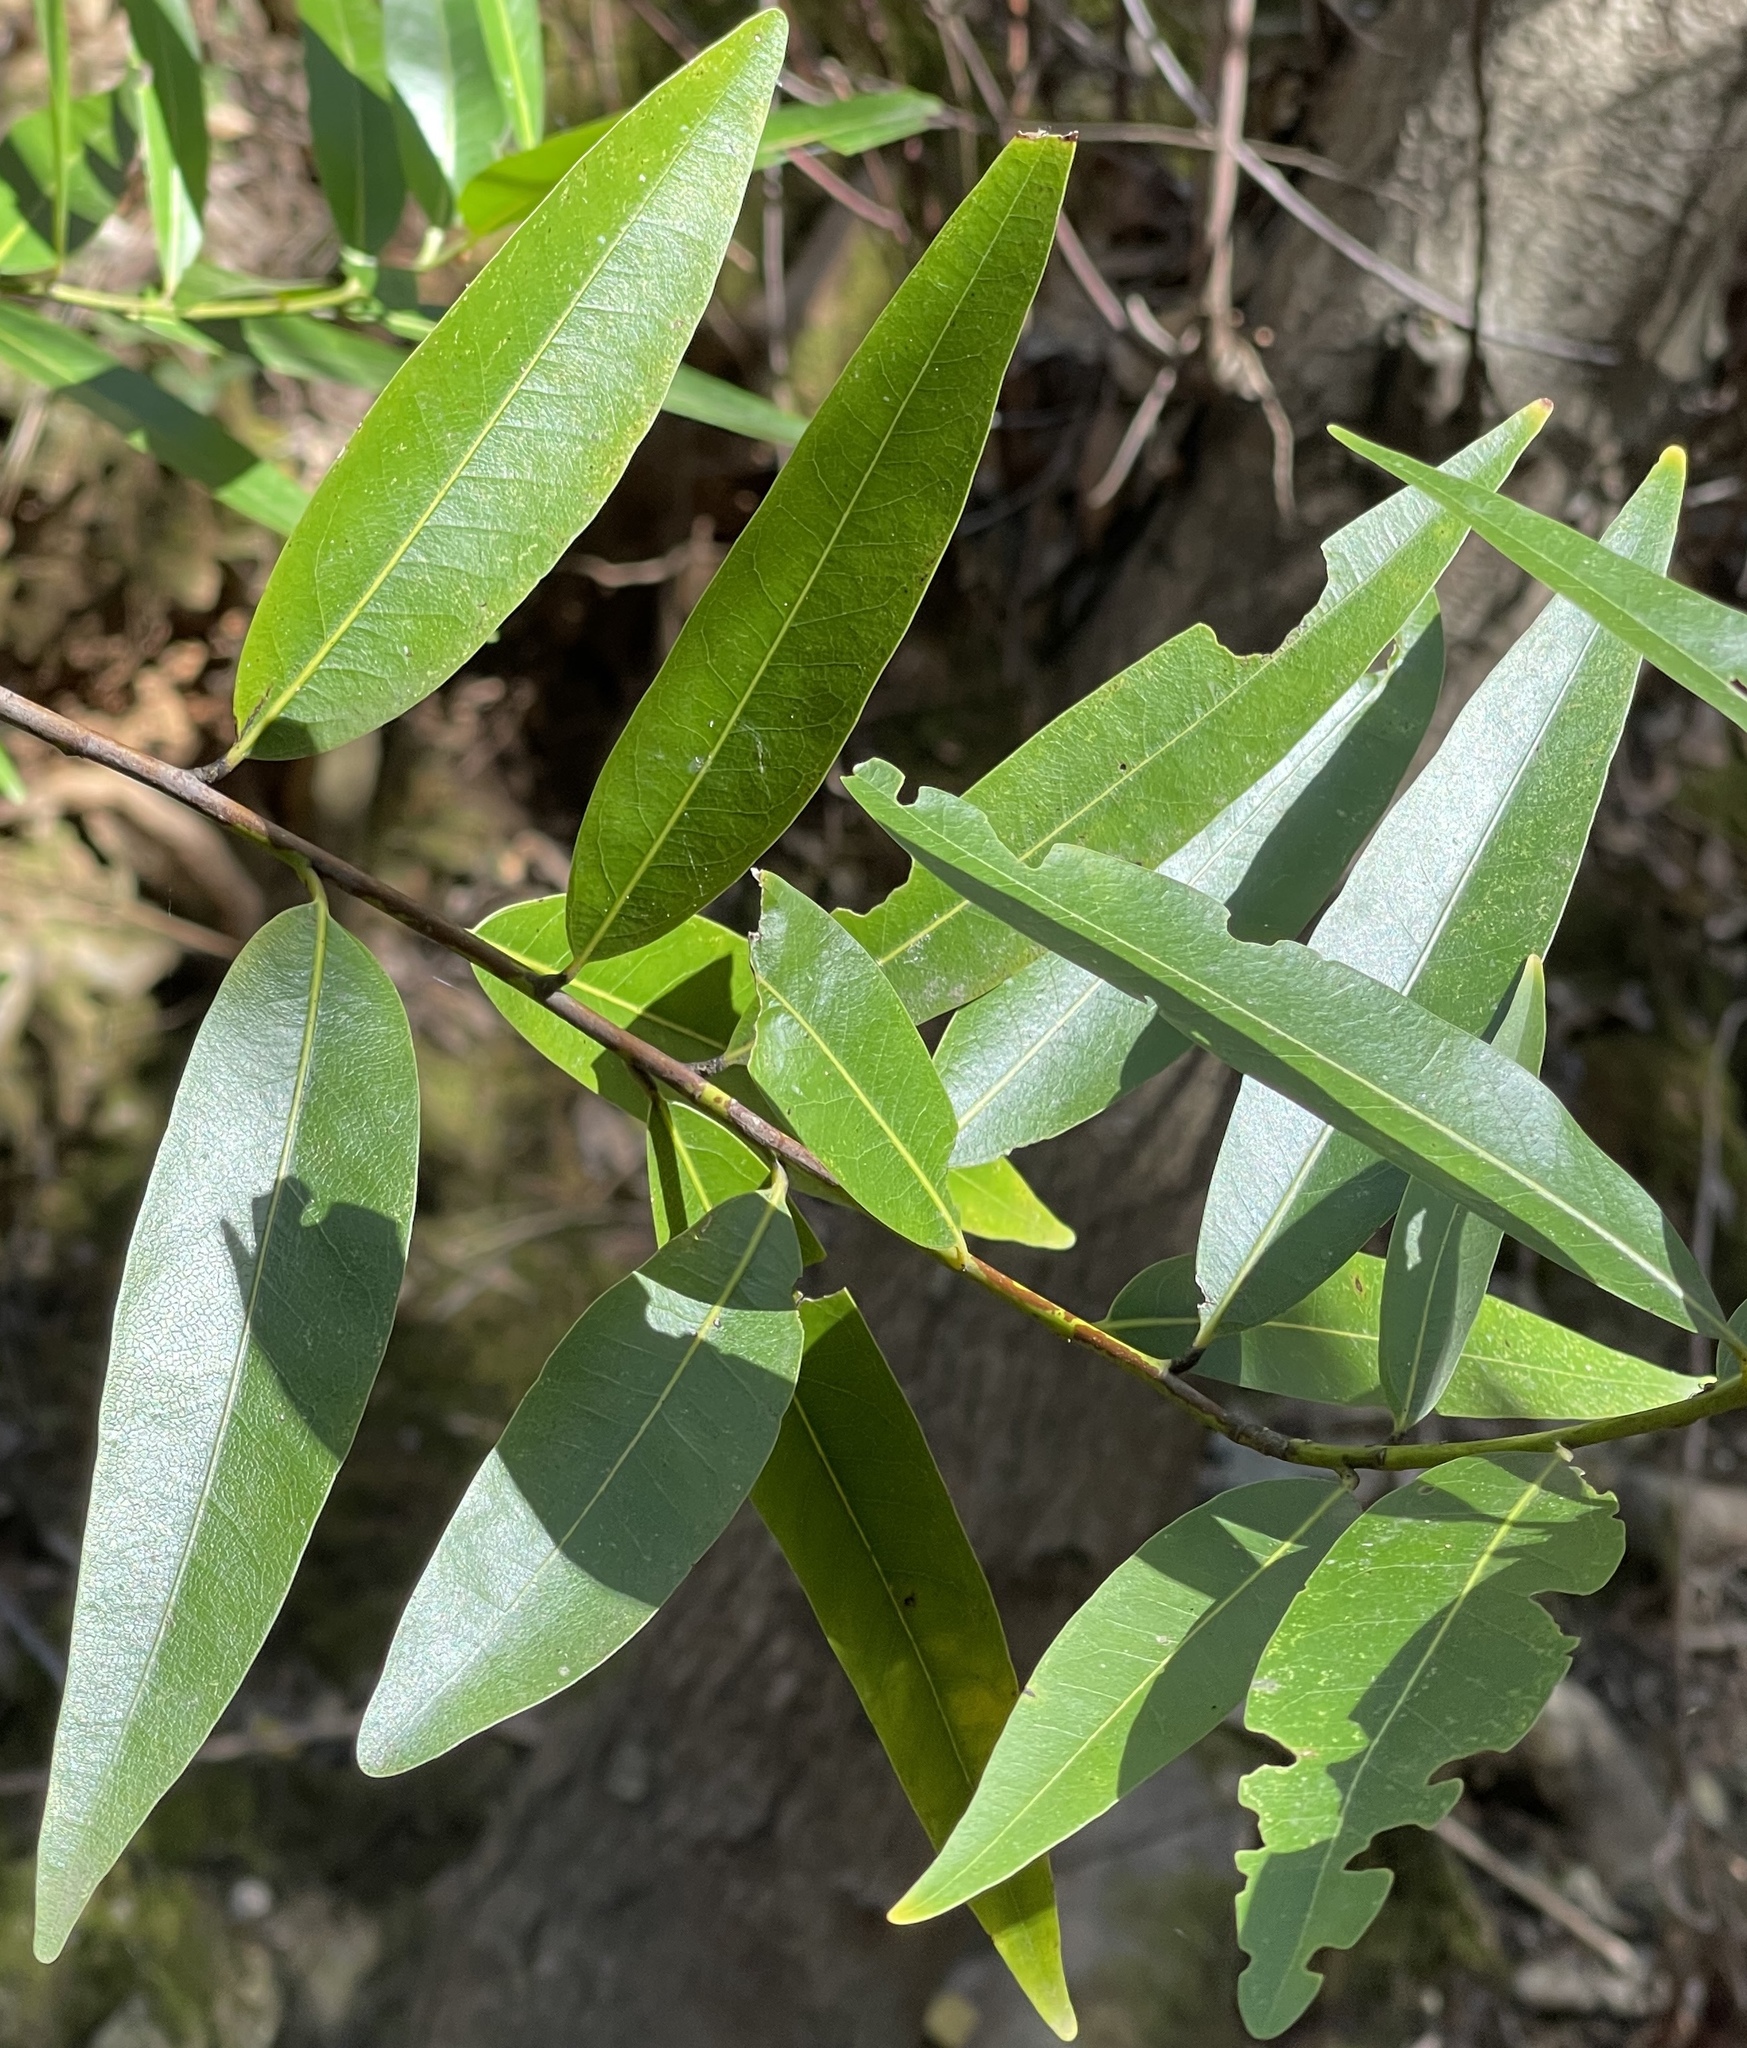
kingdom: Plantae
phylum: Tracheophyta
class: Magnoliopsida
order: Laurales
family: Lauraceae
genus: Umbellularia
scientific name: Umbellularia californica
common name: California bay
